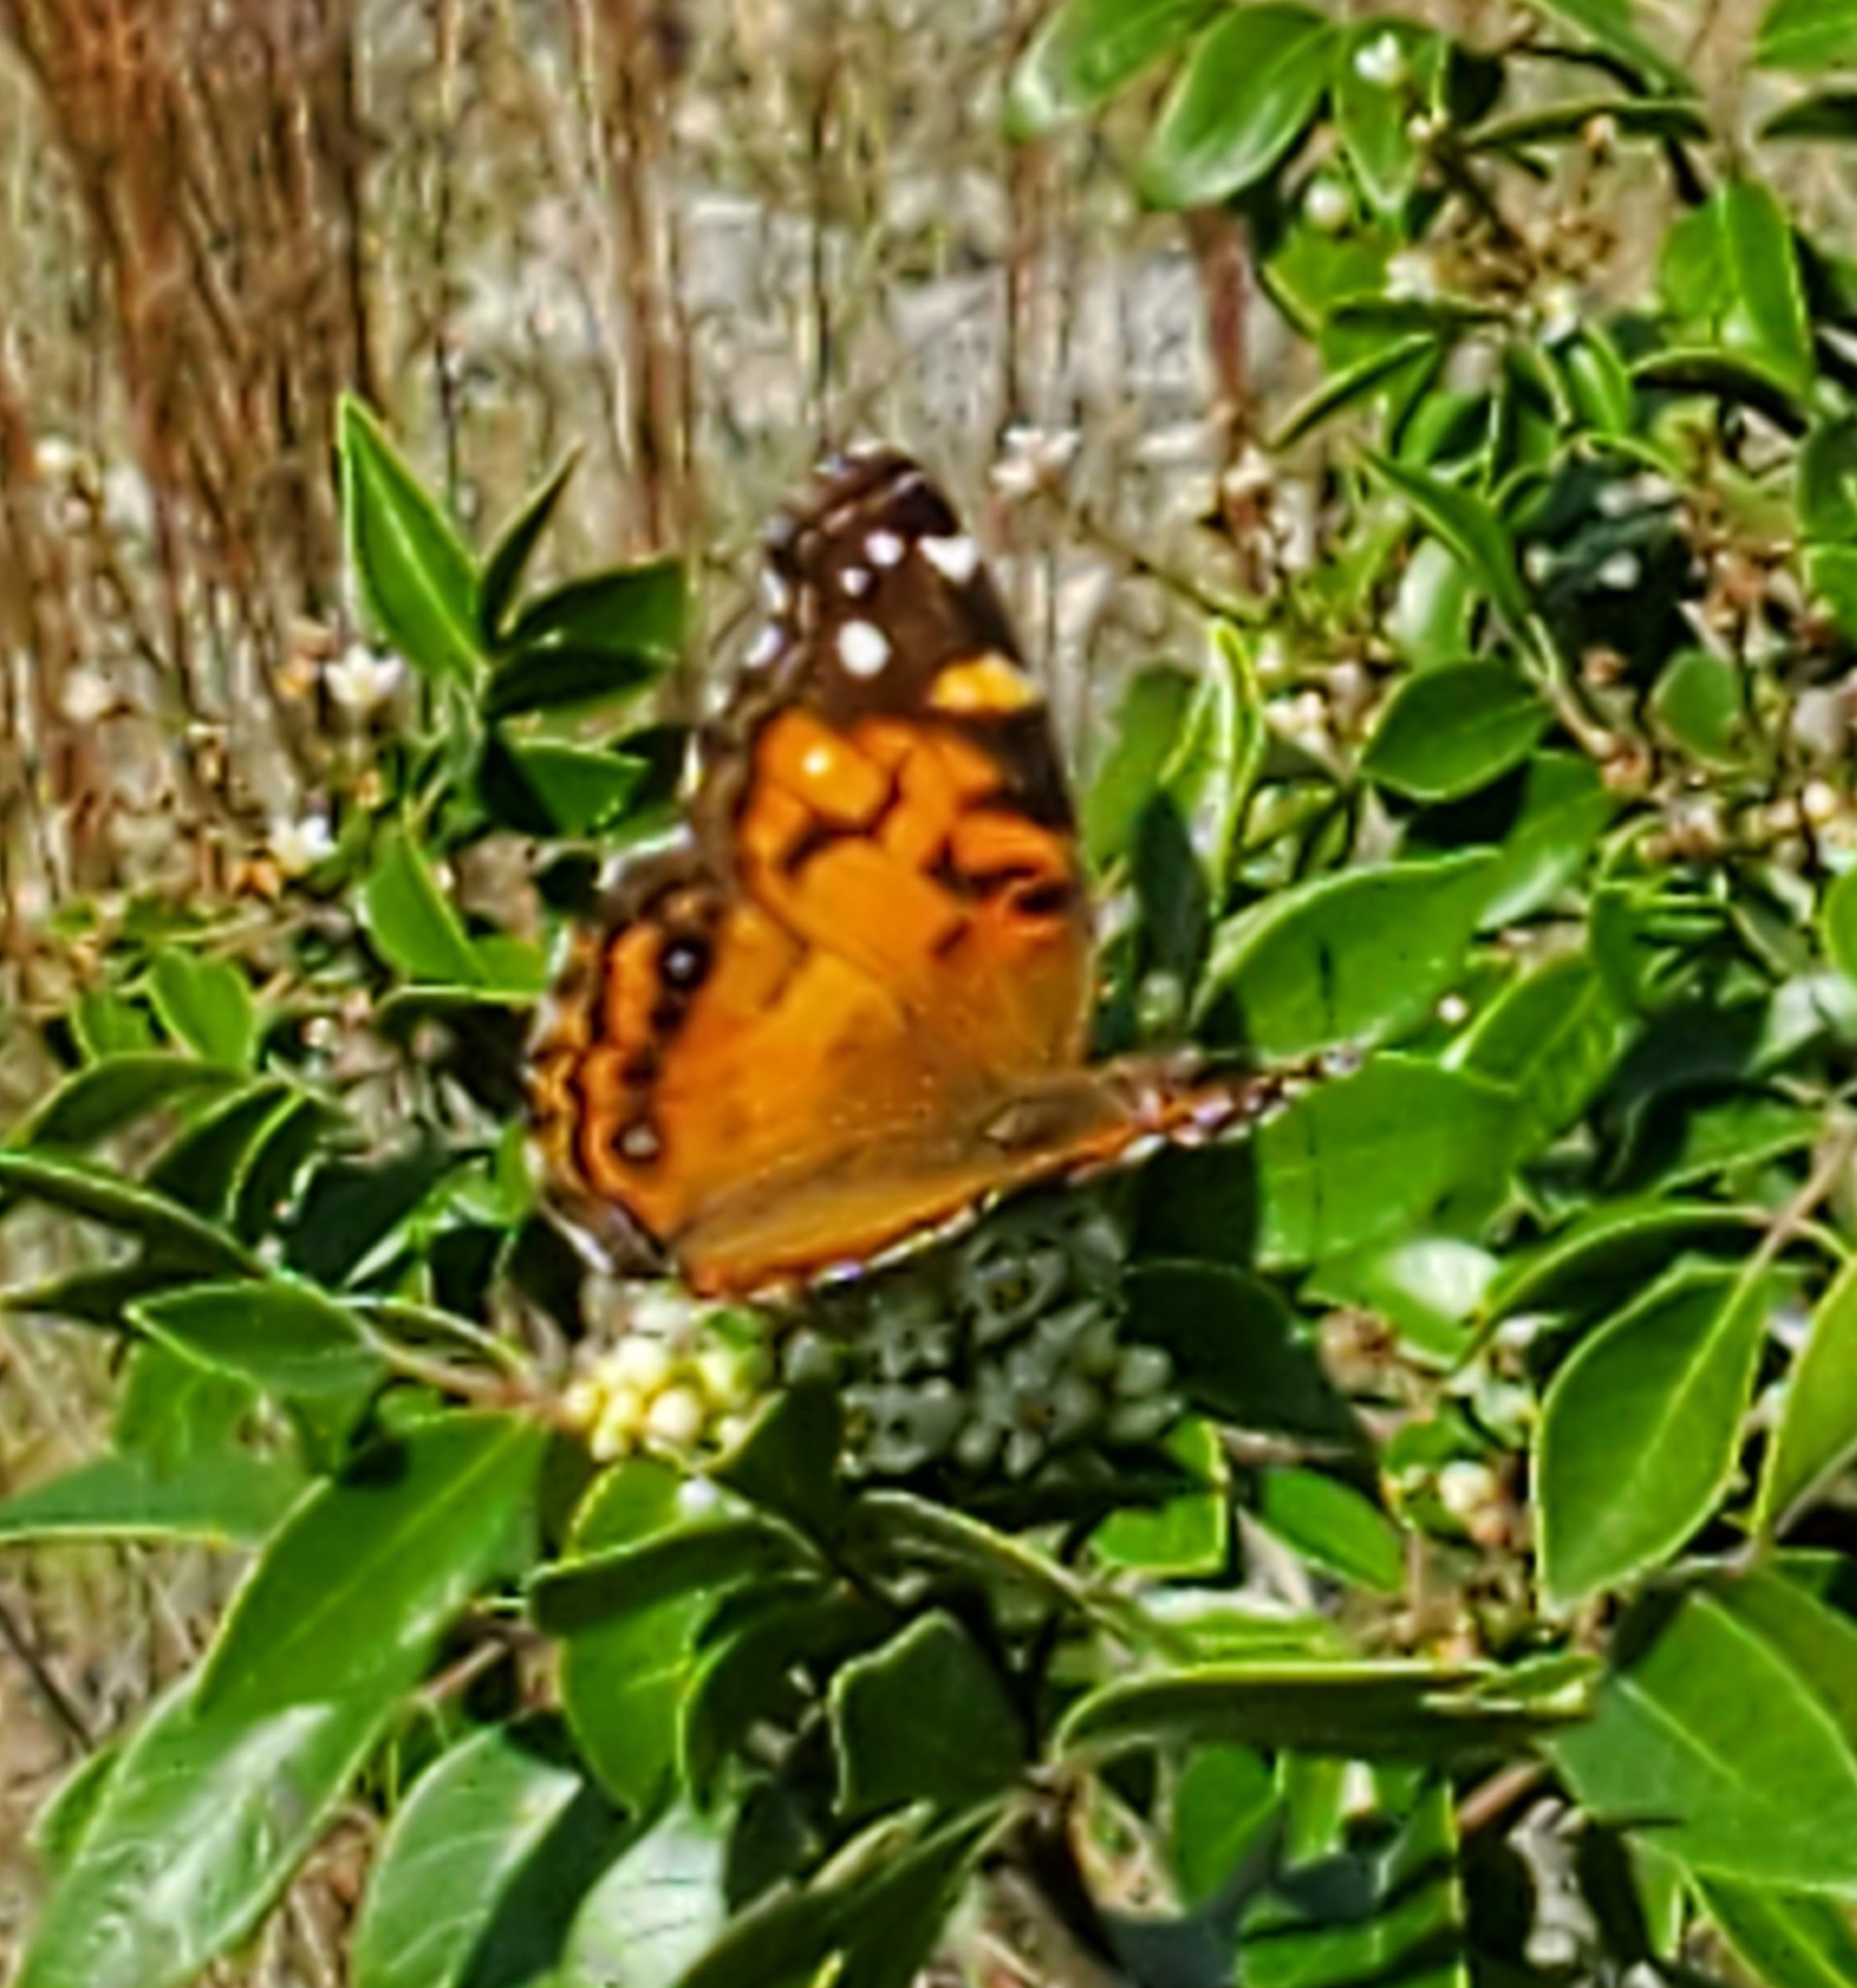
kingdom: Animalia
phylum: Arthropoda
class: Insecta
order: Lepidoptera
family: Nymphalidae
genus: Vanessa
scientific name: Vanessa virginiensis
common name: American lady
